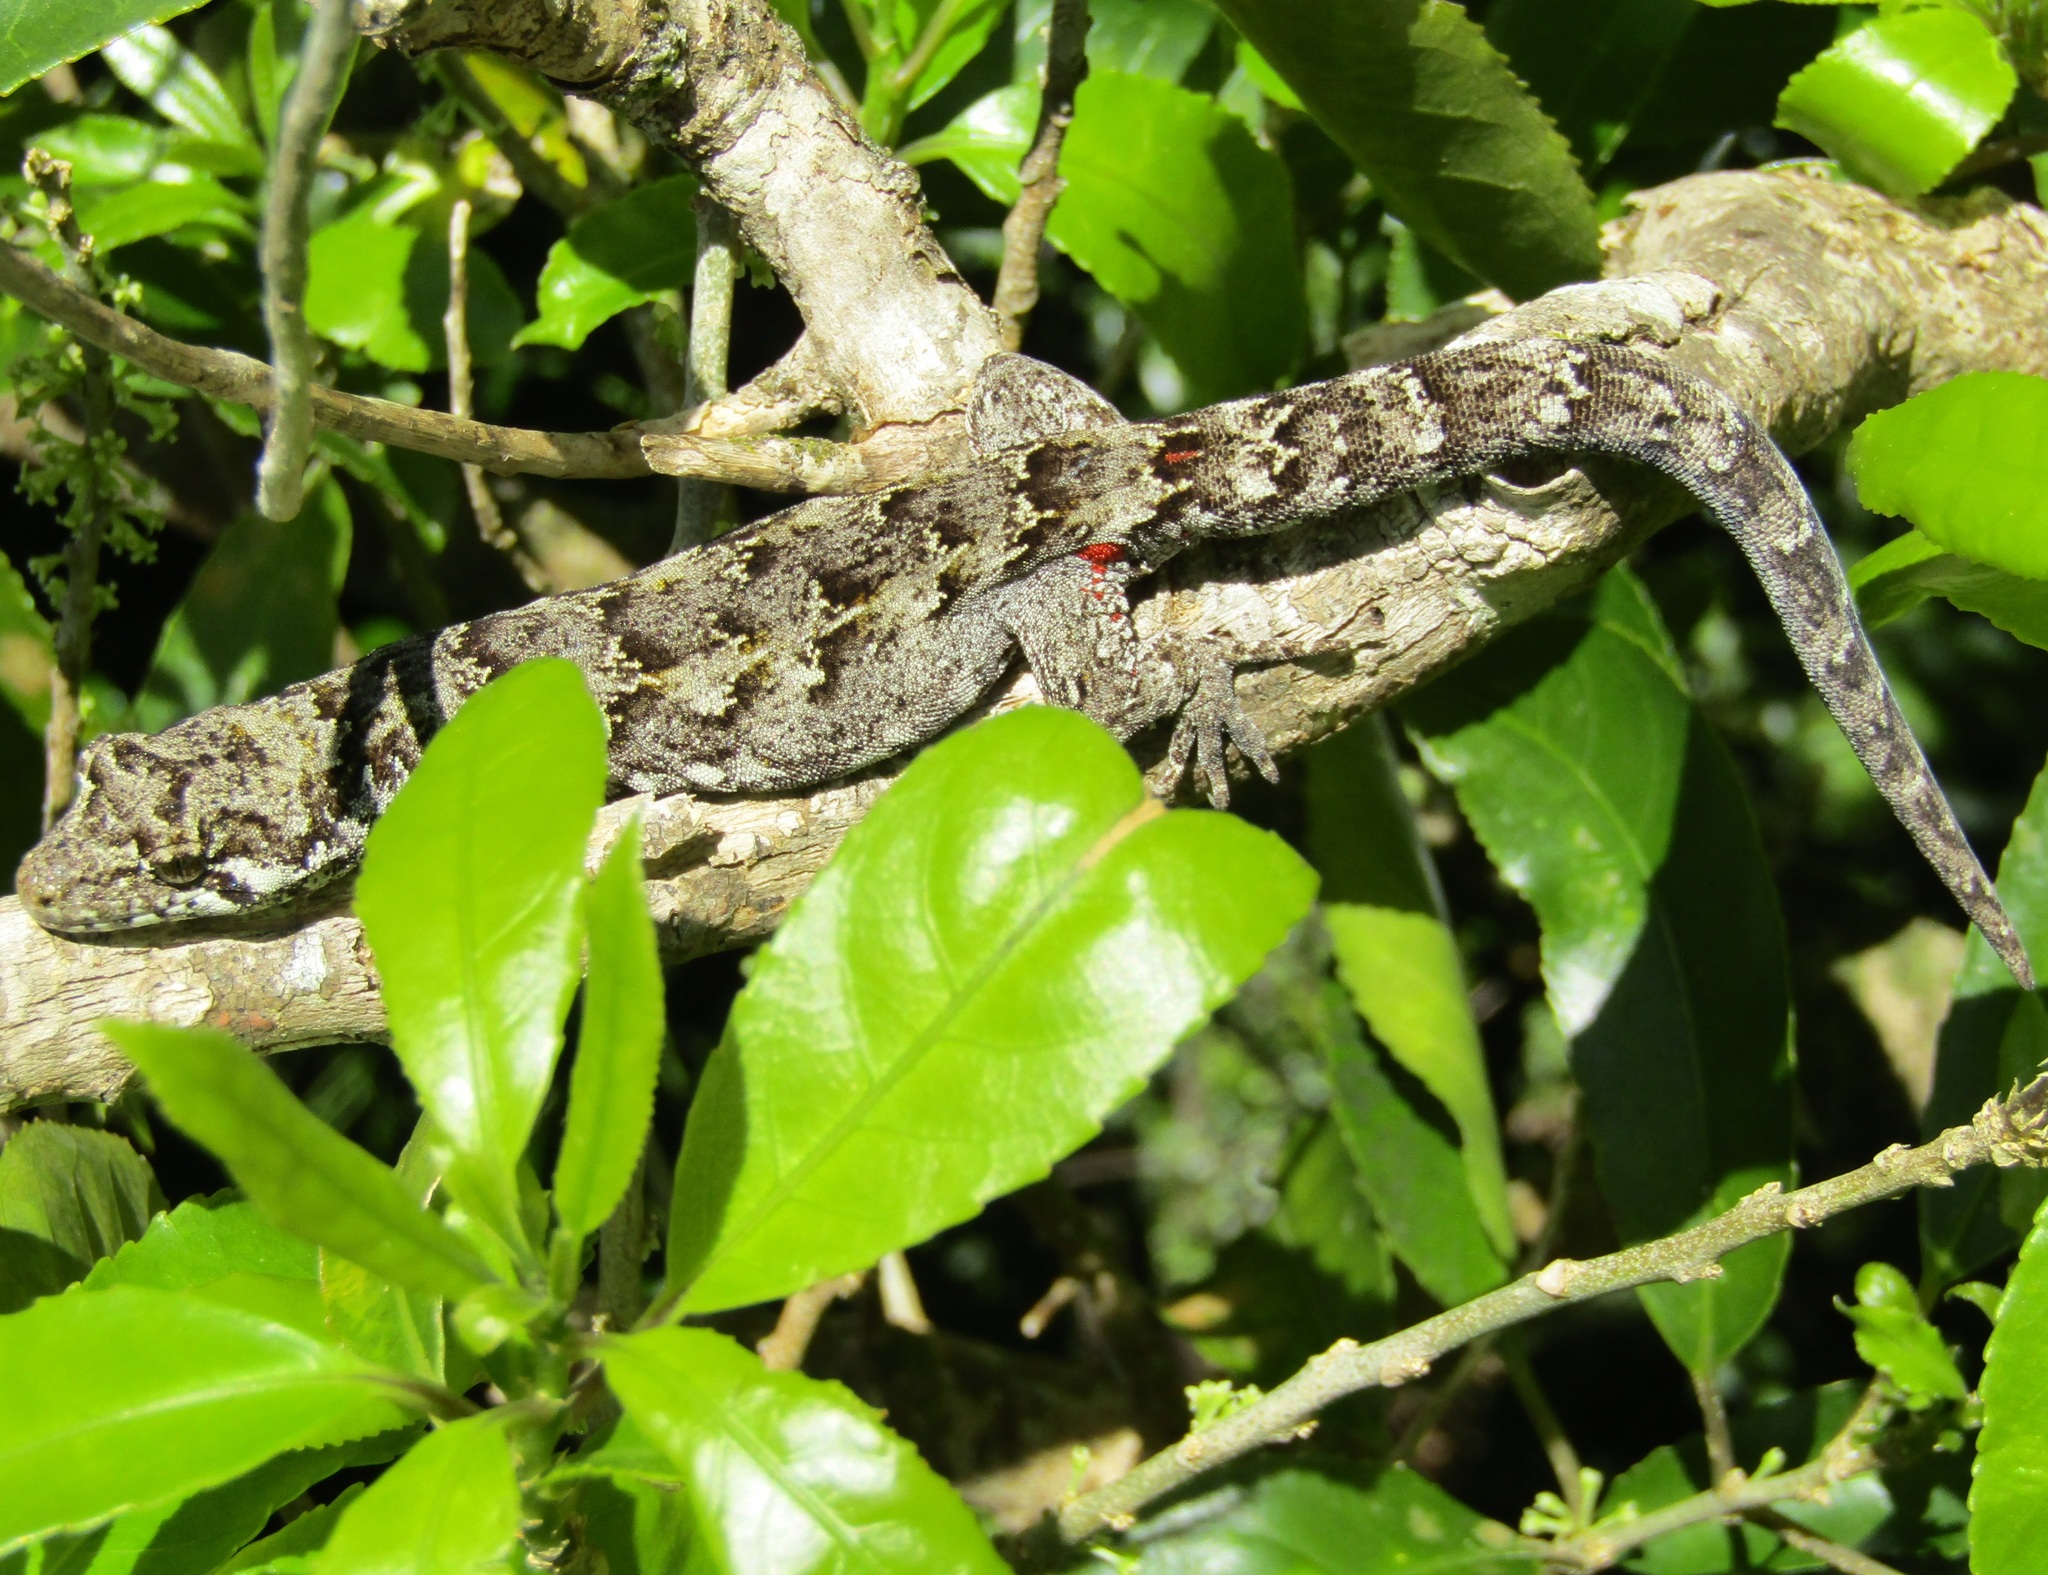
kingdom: Animalia
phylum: Chordata
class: Squamata
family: Diplodactylidae
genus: Mokopirirakau
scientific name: Mokopirirakau
